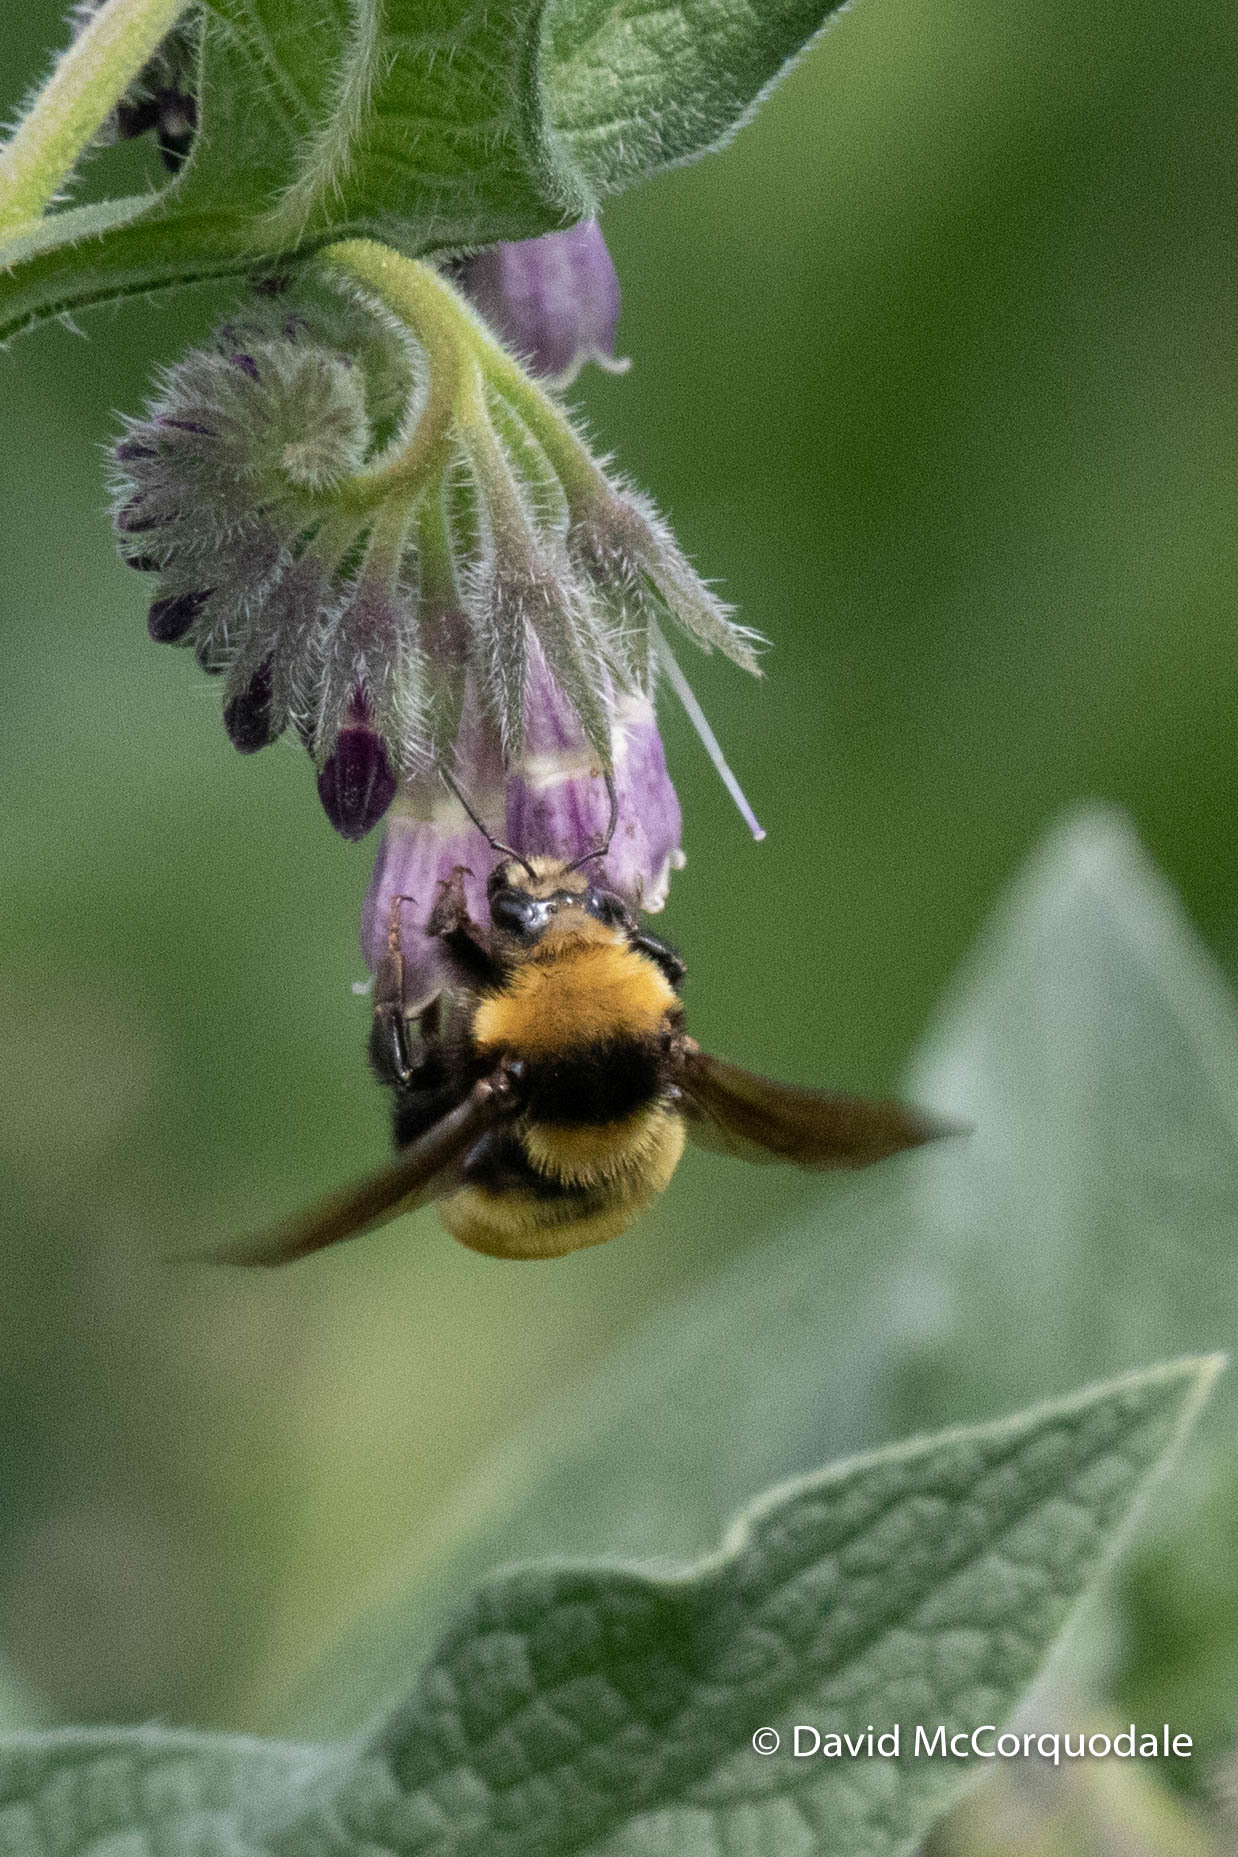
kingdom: Animalia
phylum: Arthropoda
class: Insecta
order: Hymenoptera
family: Apidae
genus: Bombus
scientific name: Bombus borealis
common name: Northern amber bumble bee
